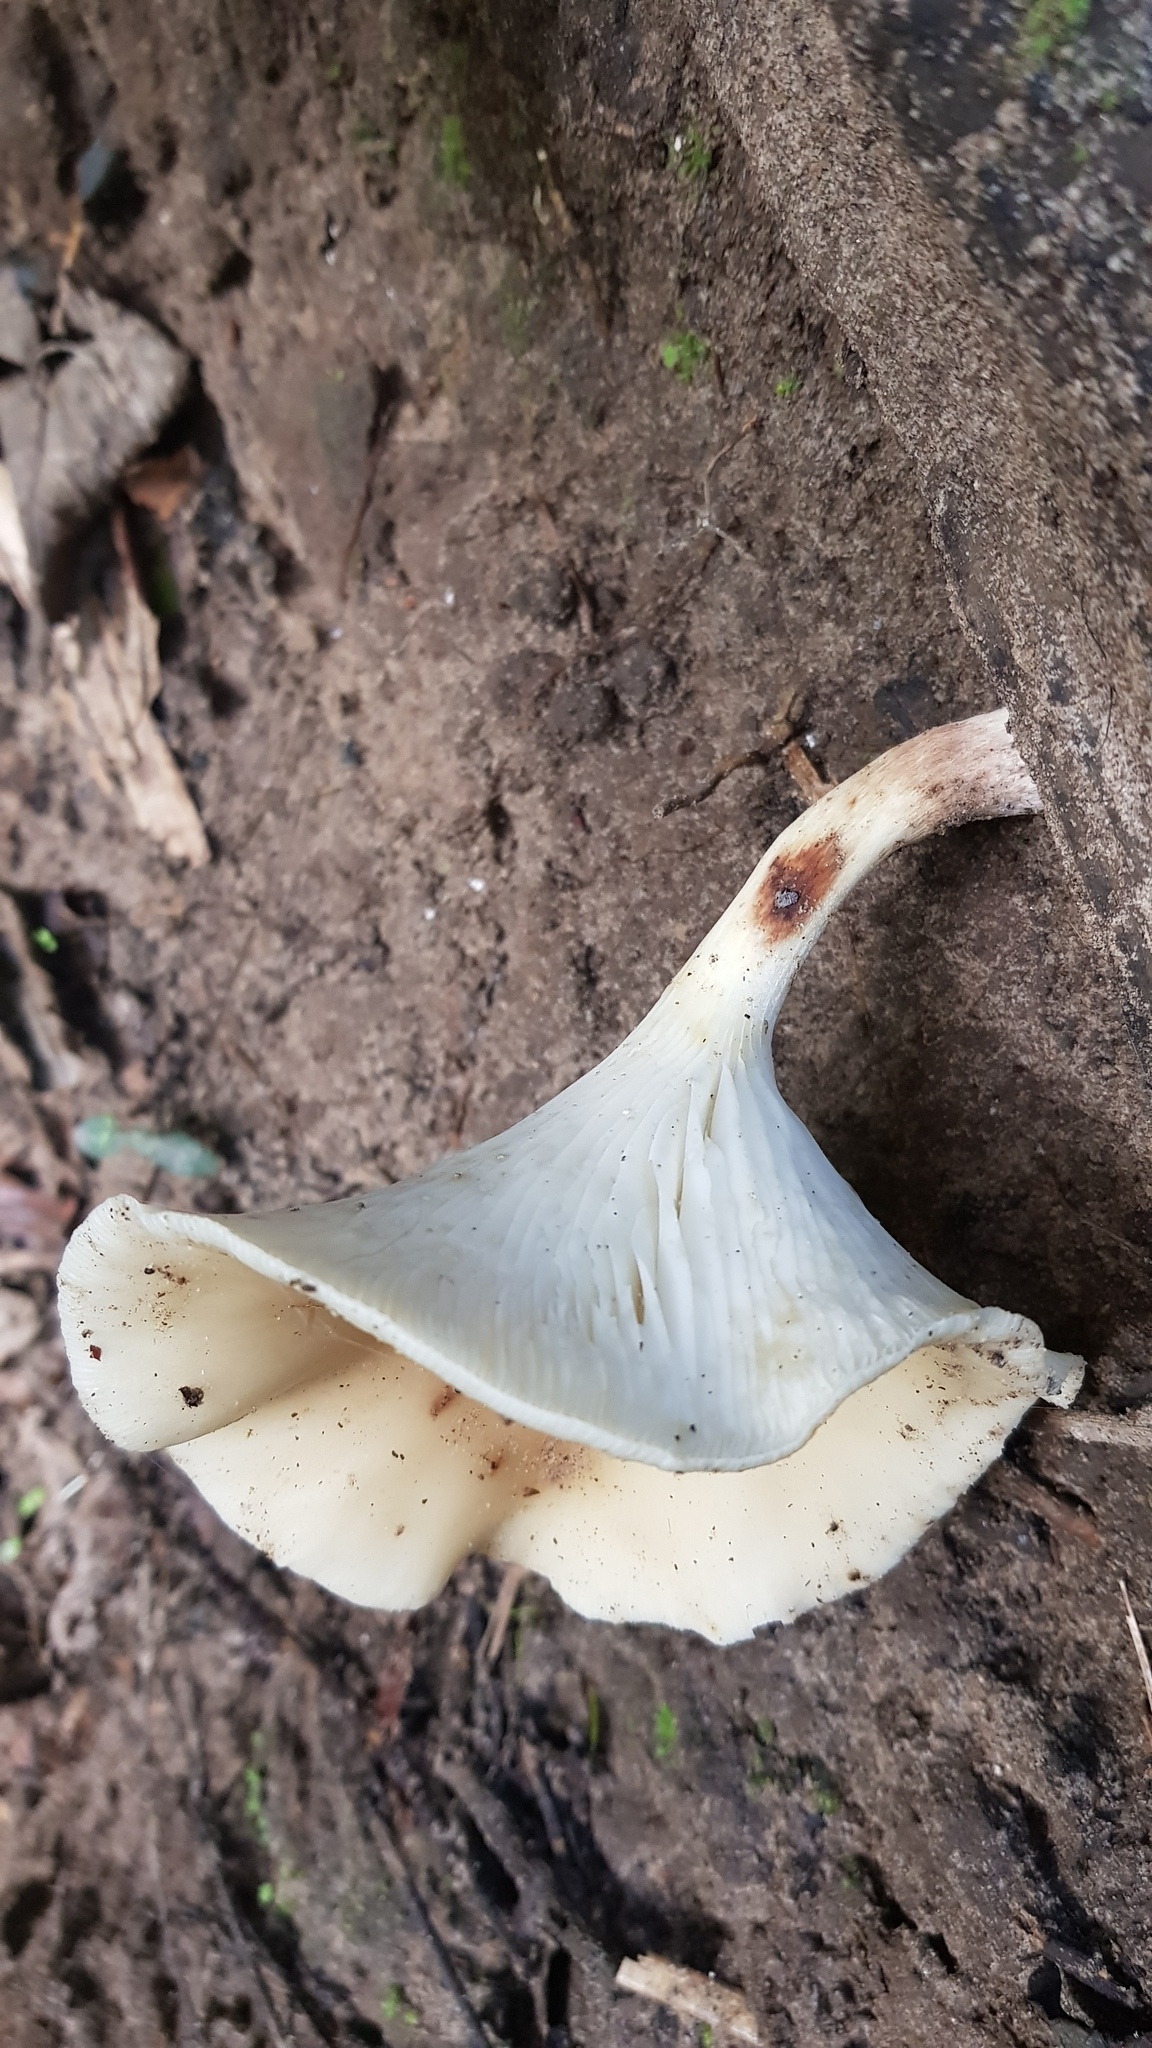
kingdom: Fungi
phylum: Basidiomycota
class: Agaricomycetes
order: Agaricales
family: Omphalotaceae
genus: Omphalotus
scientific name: Omphalotus nidiformis
